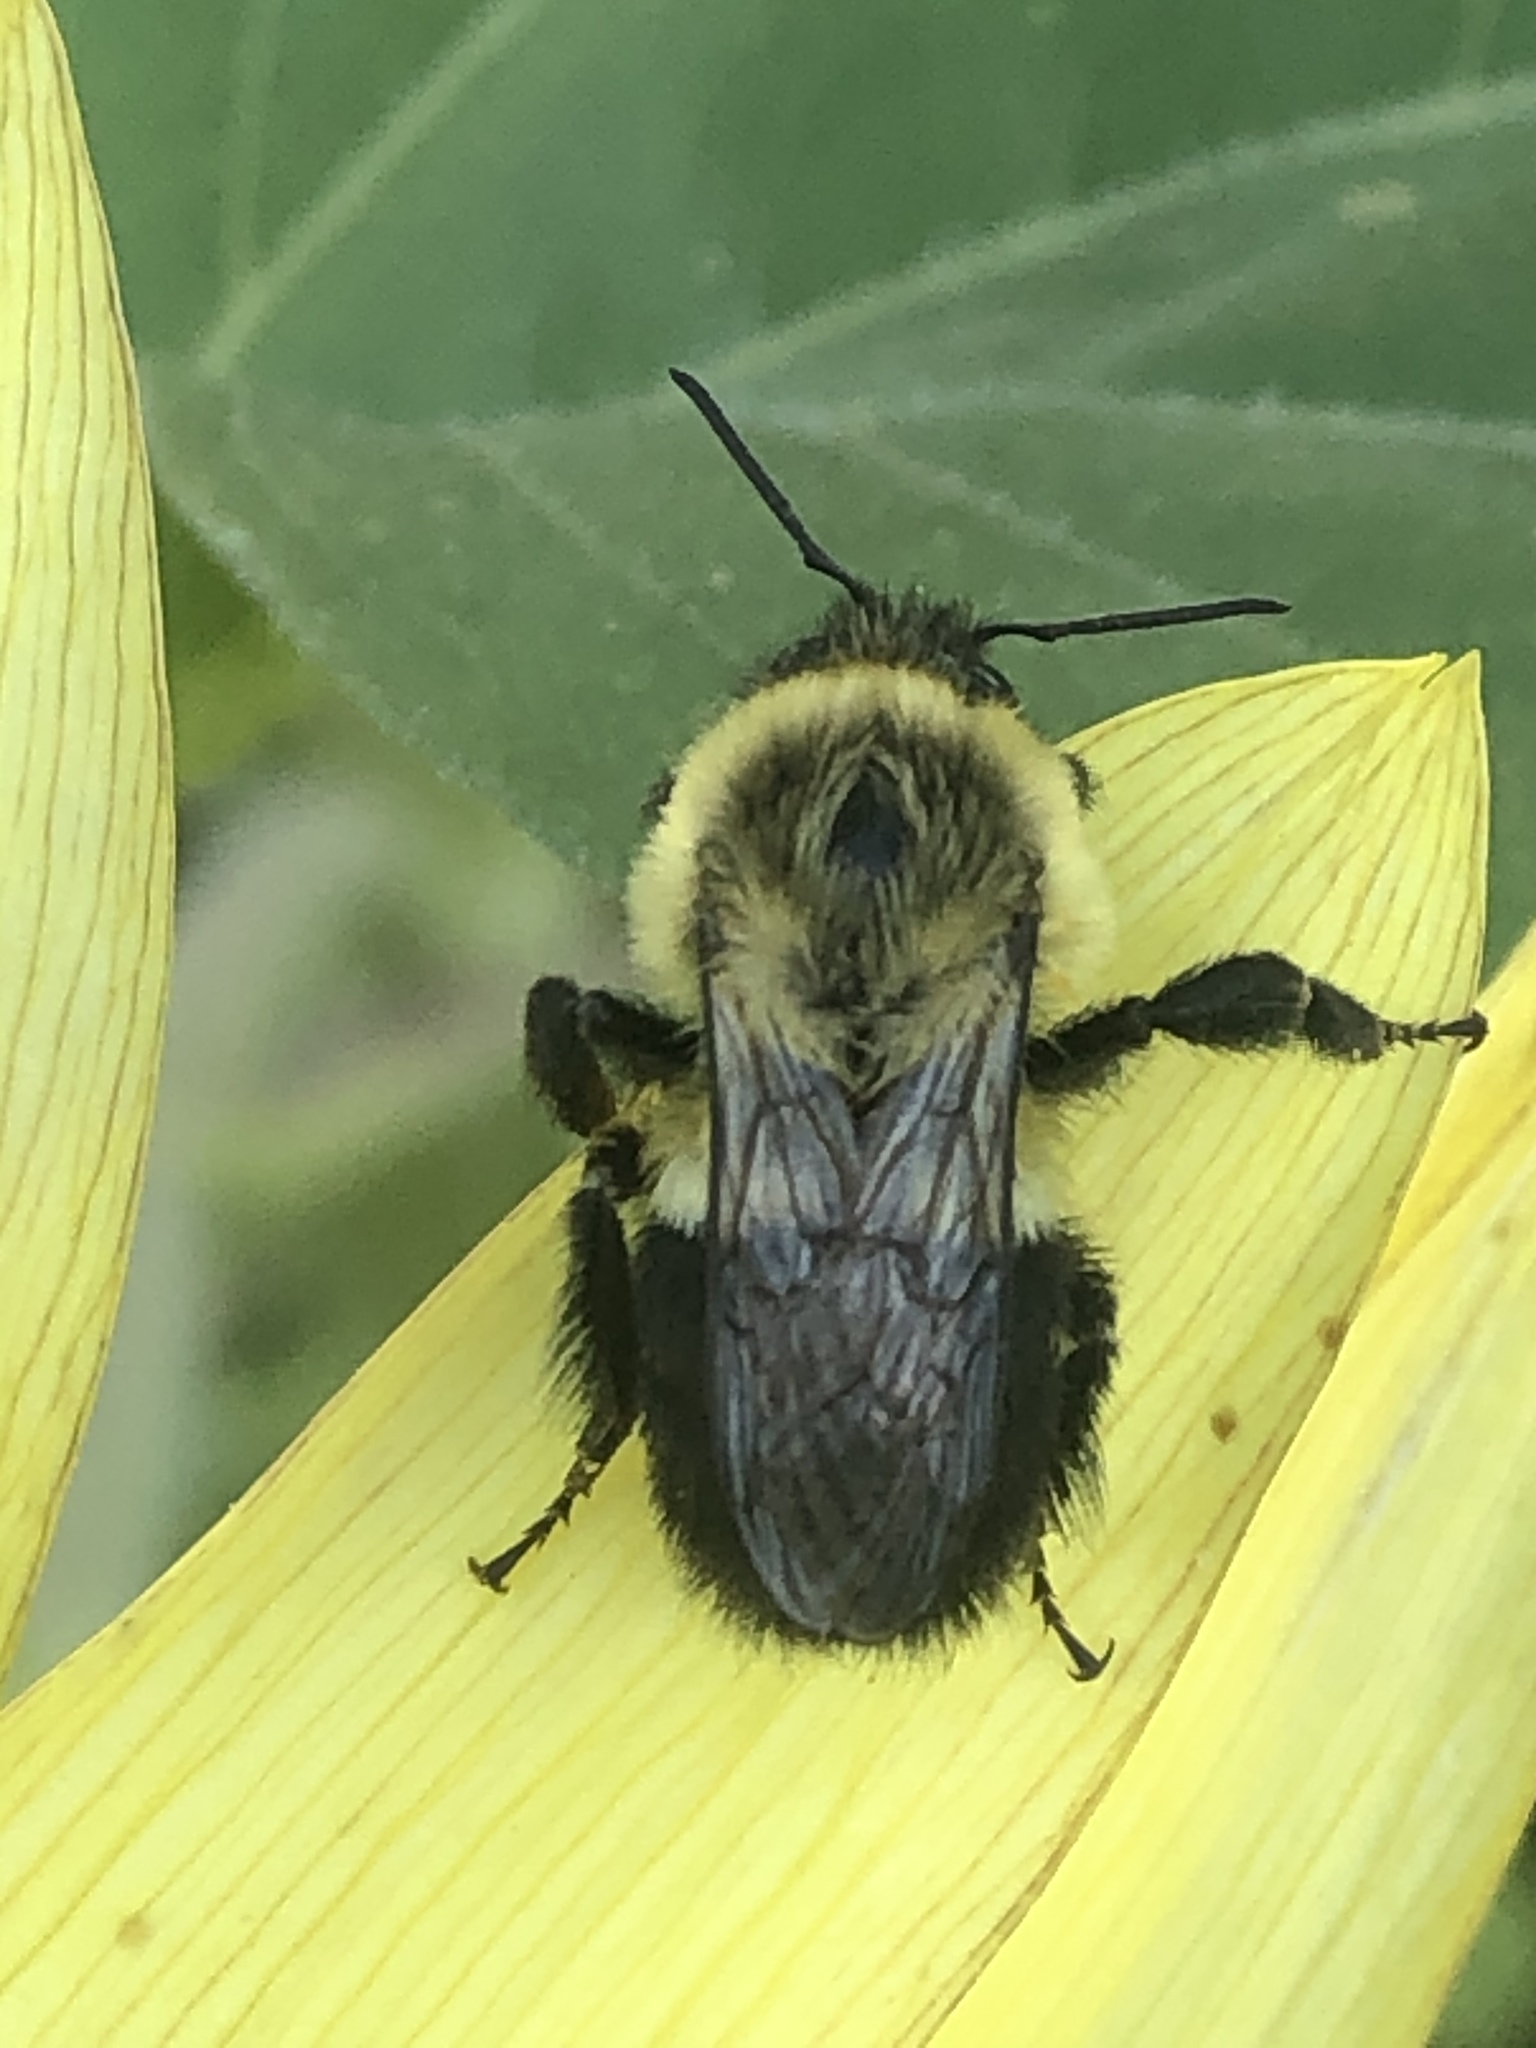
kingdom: Animalia
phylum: Arthropoda
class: Insecta
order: Hymenoptera
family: Apidae
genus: Bombus
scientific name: Bombus impatiens
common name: Common eastern bumble bee
